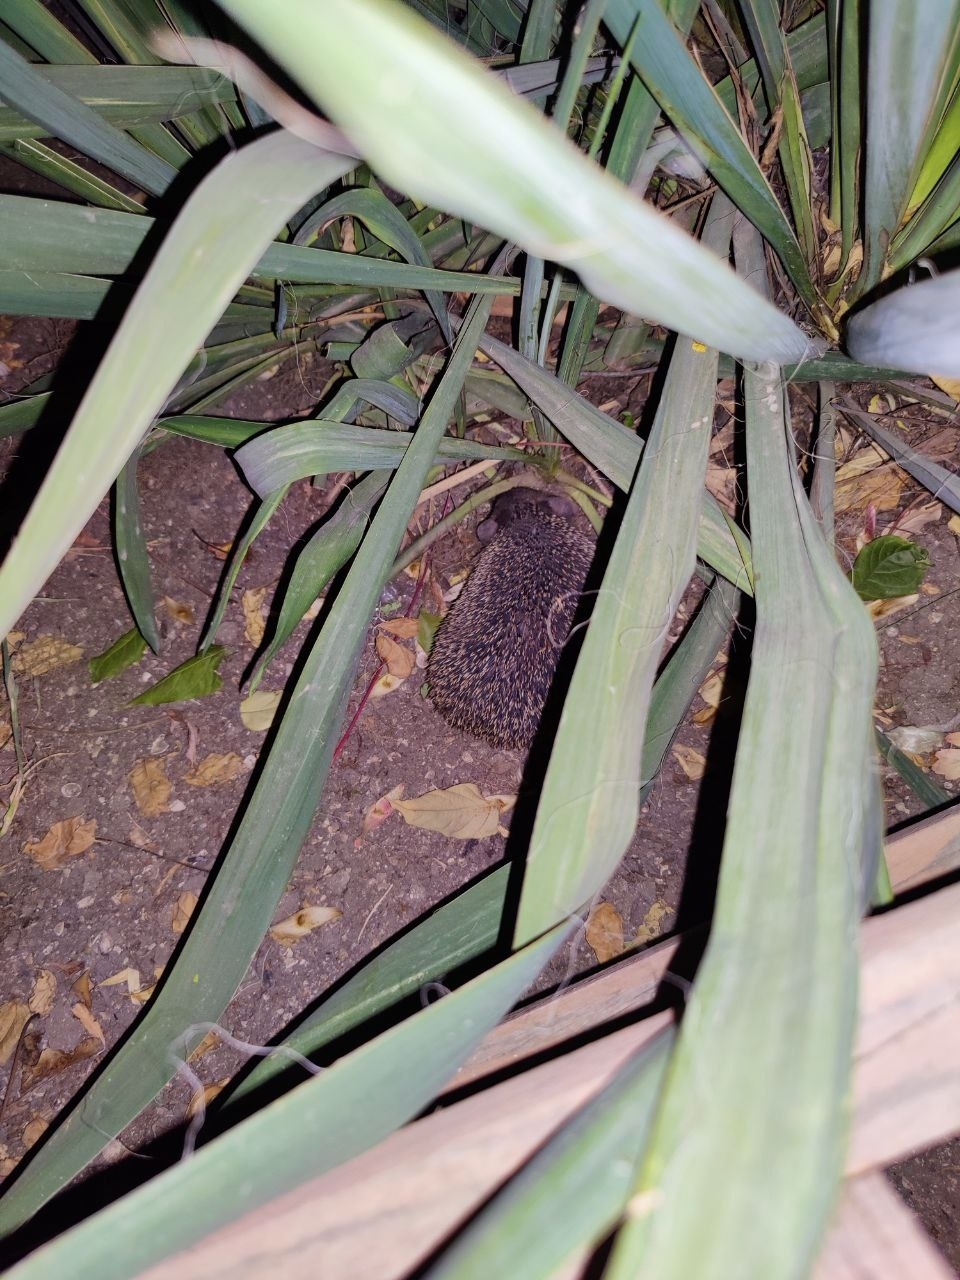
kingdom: Animalia
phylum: Chordata
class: Mammalia
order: Erinaceomorpha
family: Erinaceidae
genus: Hemiechinus
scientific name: Hemiechinus auritus
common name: Long-eared hedgehog
